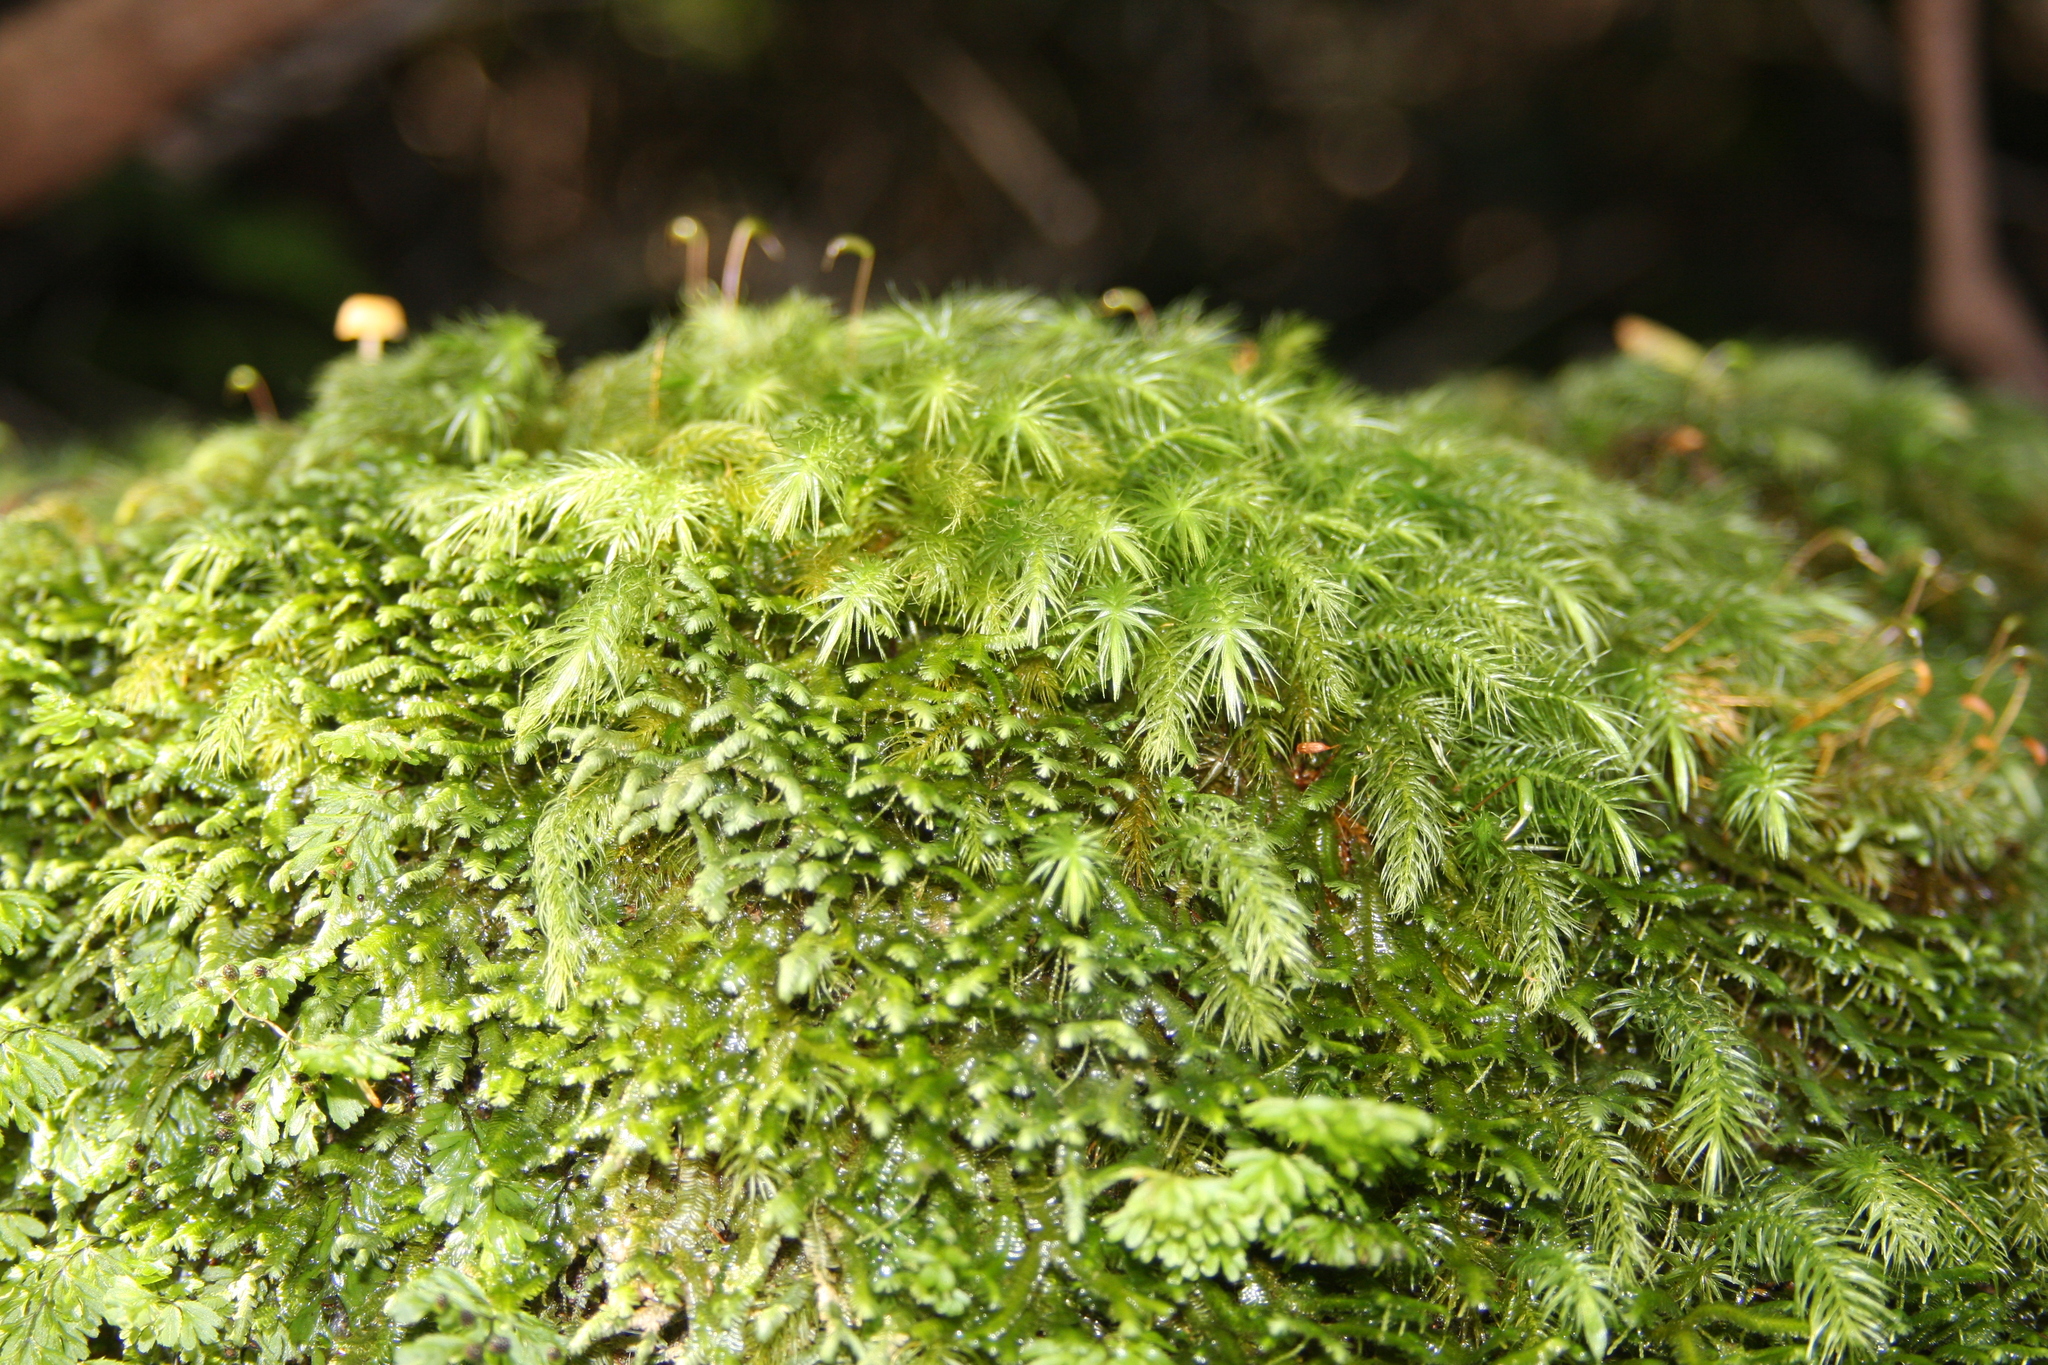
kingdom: Fungi
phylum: Basidiomycota
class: Agaricomycetes
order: Hymenochaetales
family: Rickenellaceae
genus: Rickenella
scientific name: Rickenella fibula
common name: Orange mosscap
